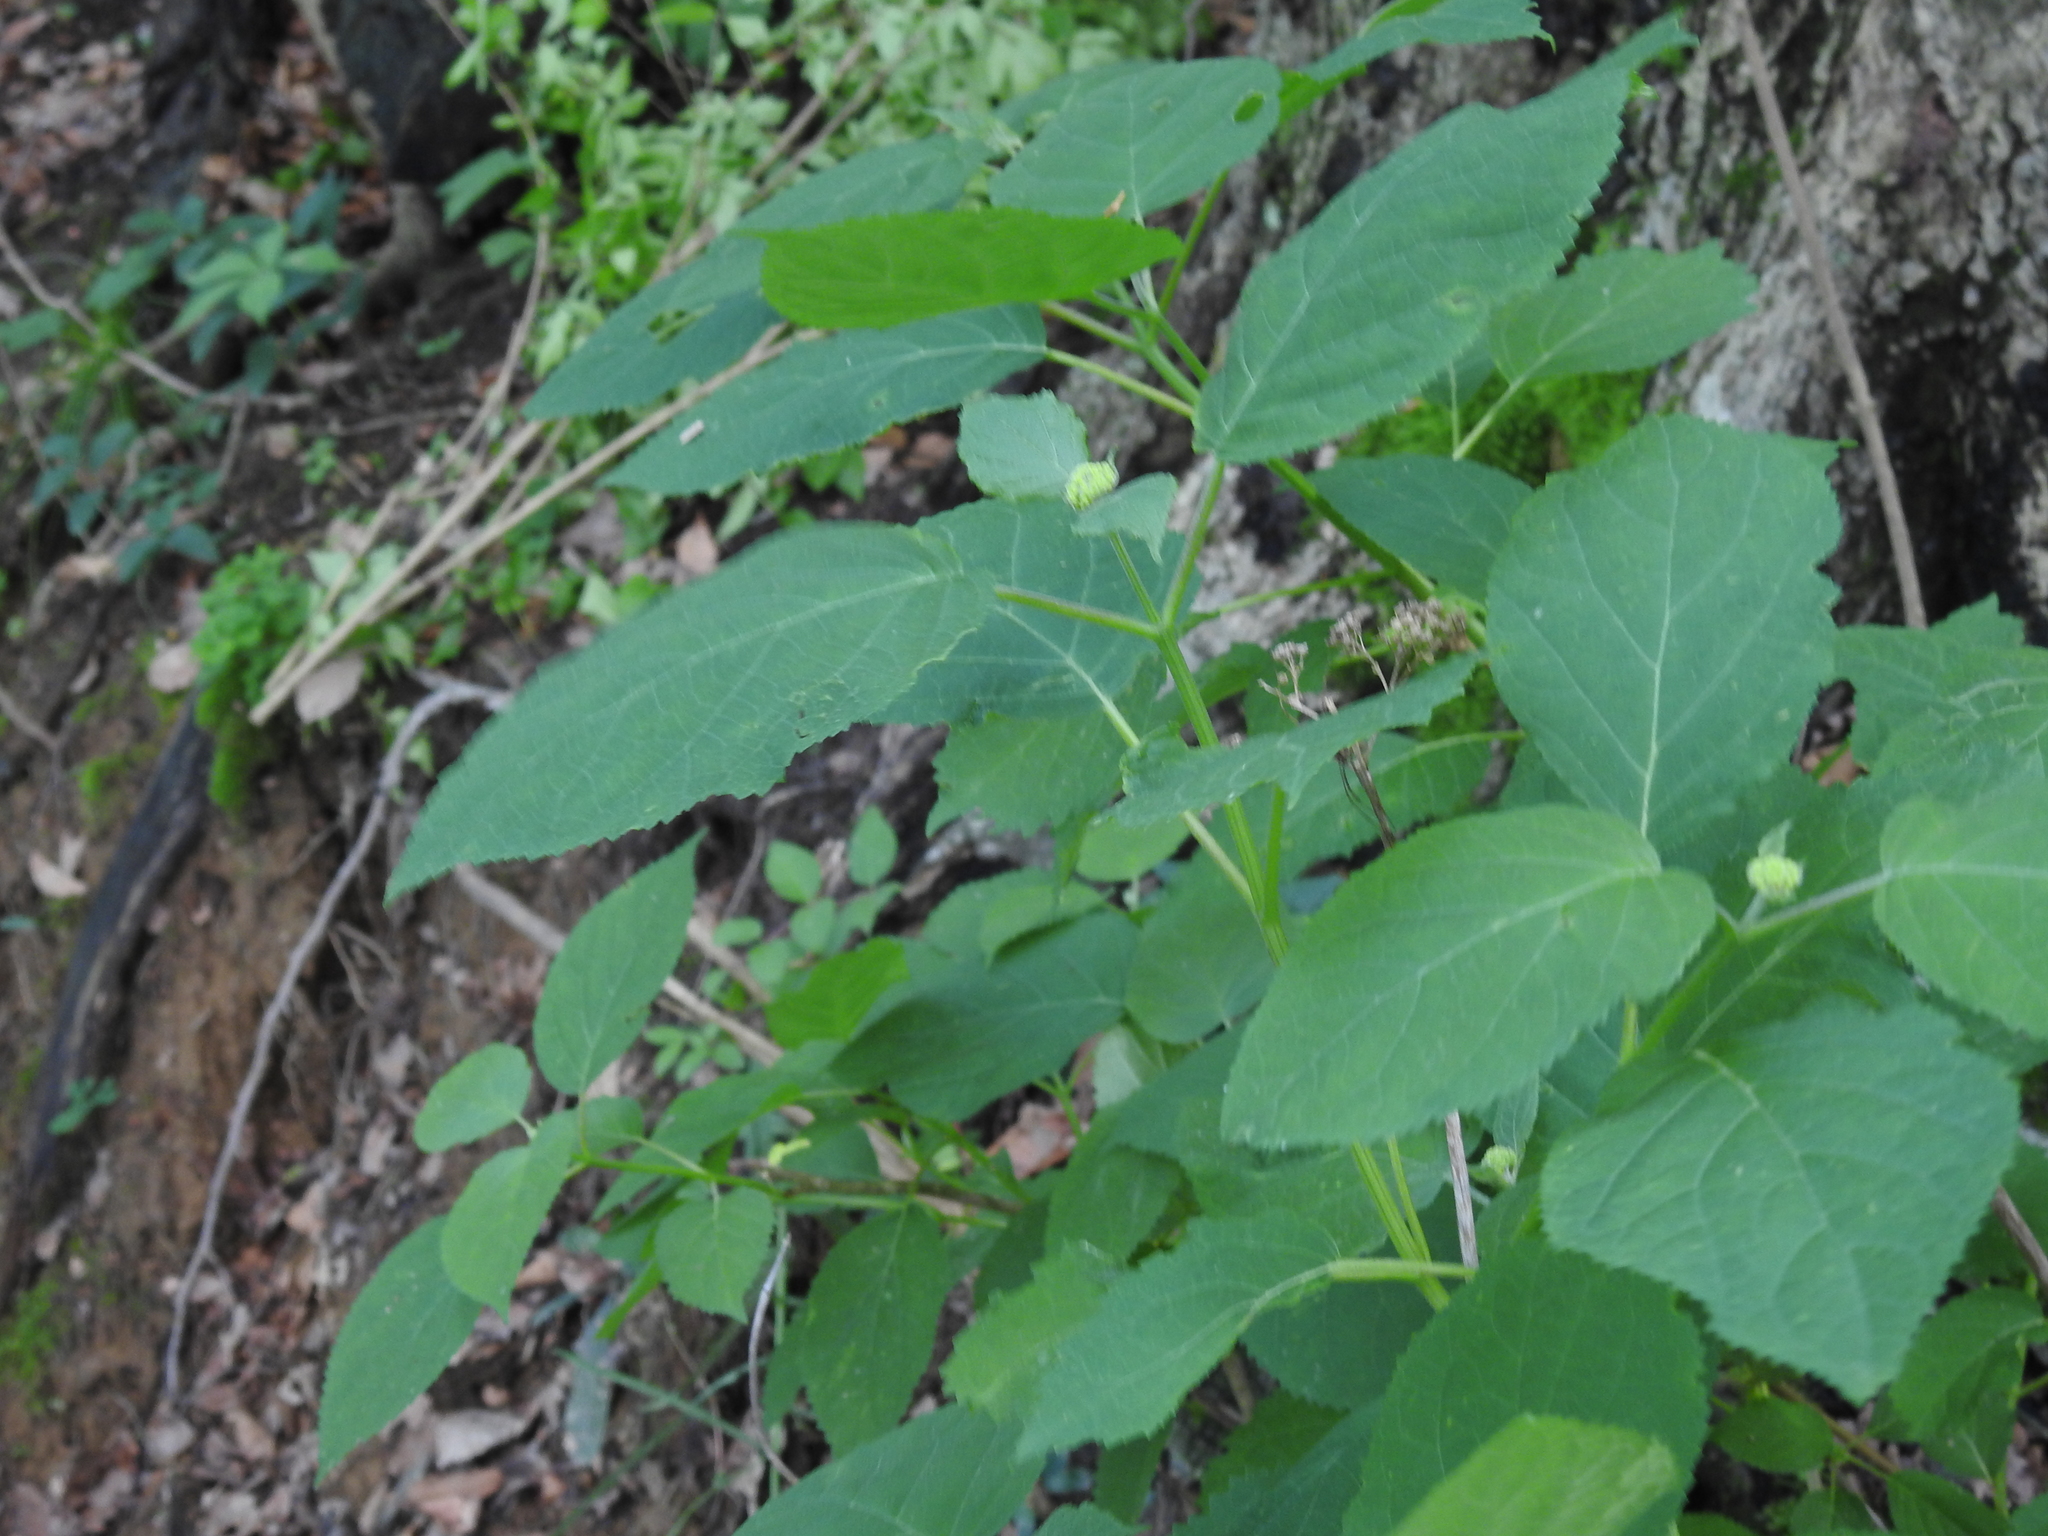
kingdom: Plantae
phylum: Tracheophyta
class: Magnoliopsida
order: Gentianales
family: Rubiaceae
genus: Cephalanthus
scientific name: Cephalanthus occidentalis
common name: Button-willow
